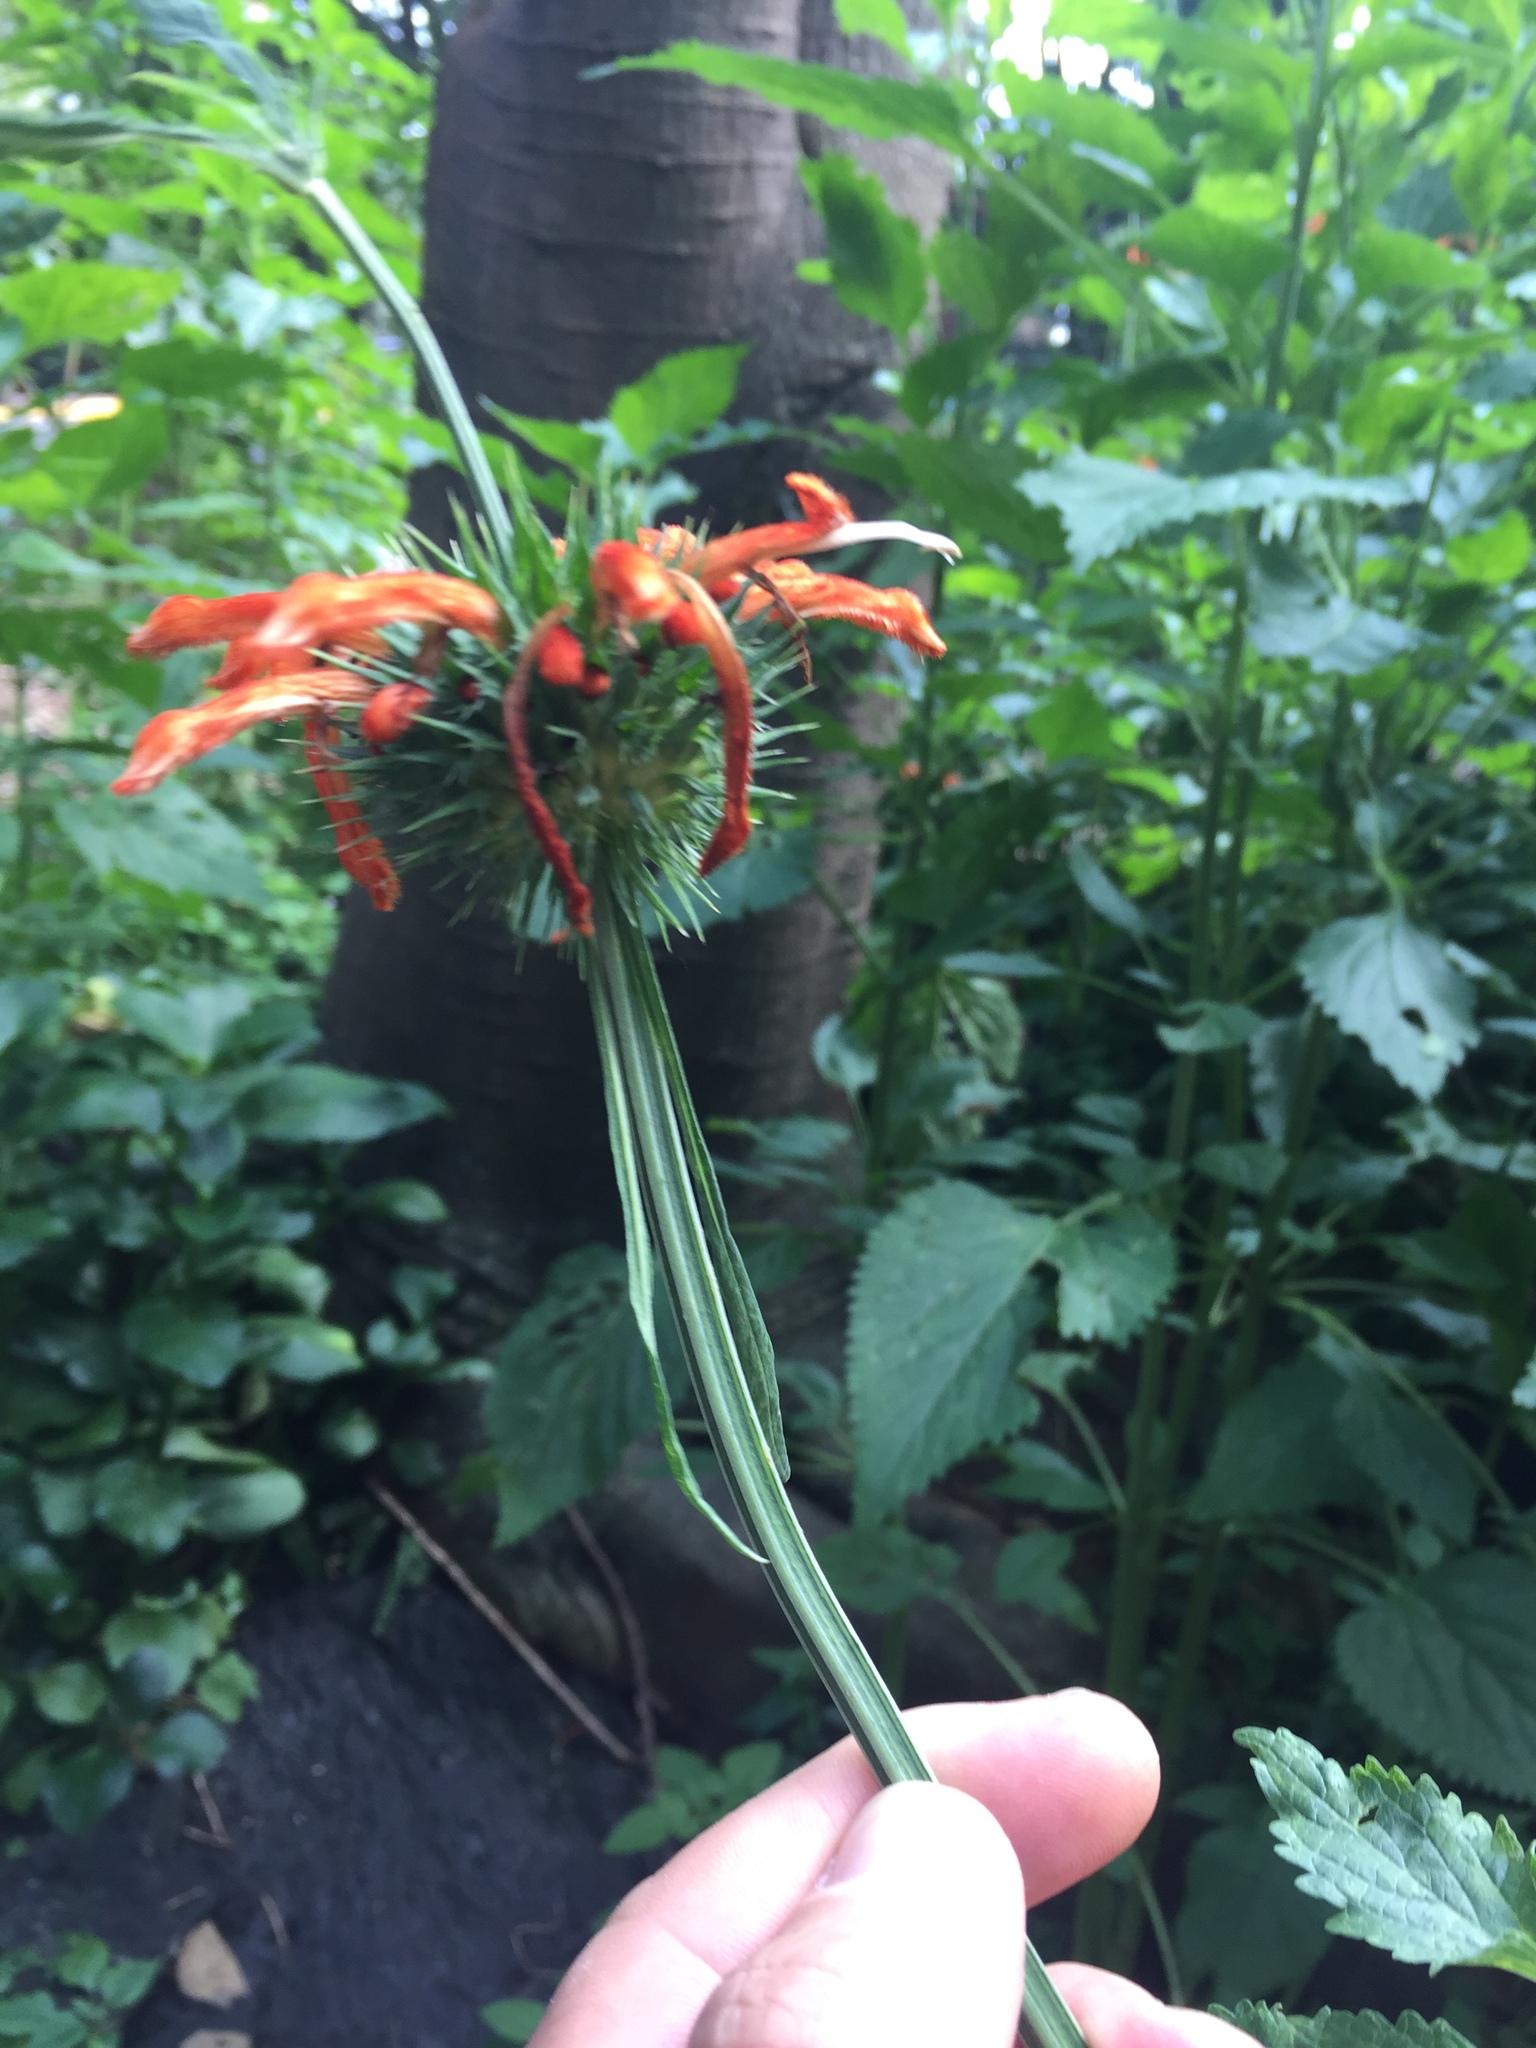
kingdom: Plantae
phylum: Tracheophyta
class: Magnoliopsida
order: Lamiales
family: Lamiaceae
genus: Leonotis
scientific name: Leonotis nepetifolia
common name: Christmas candlestick
